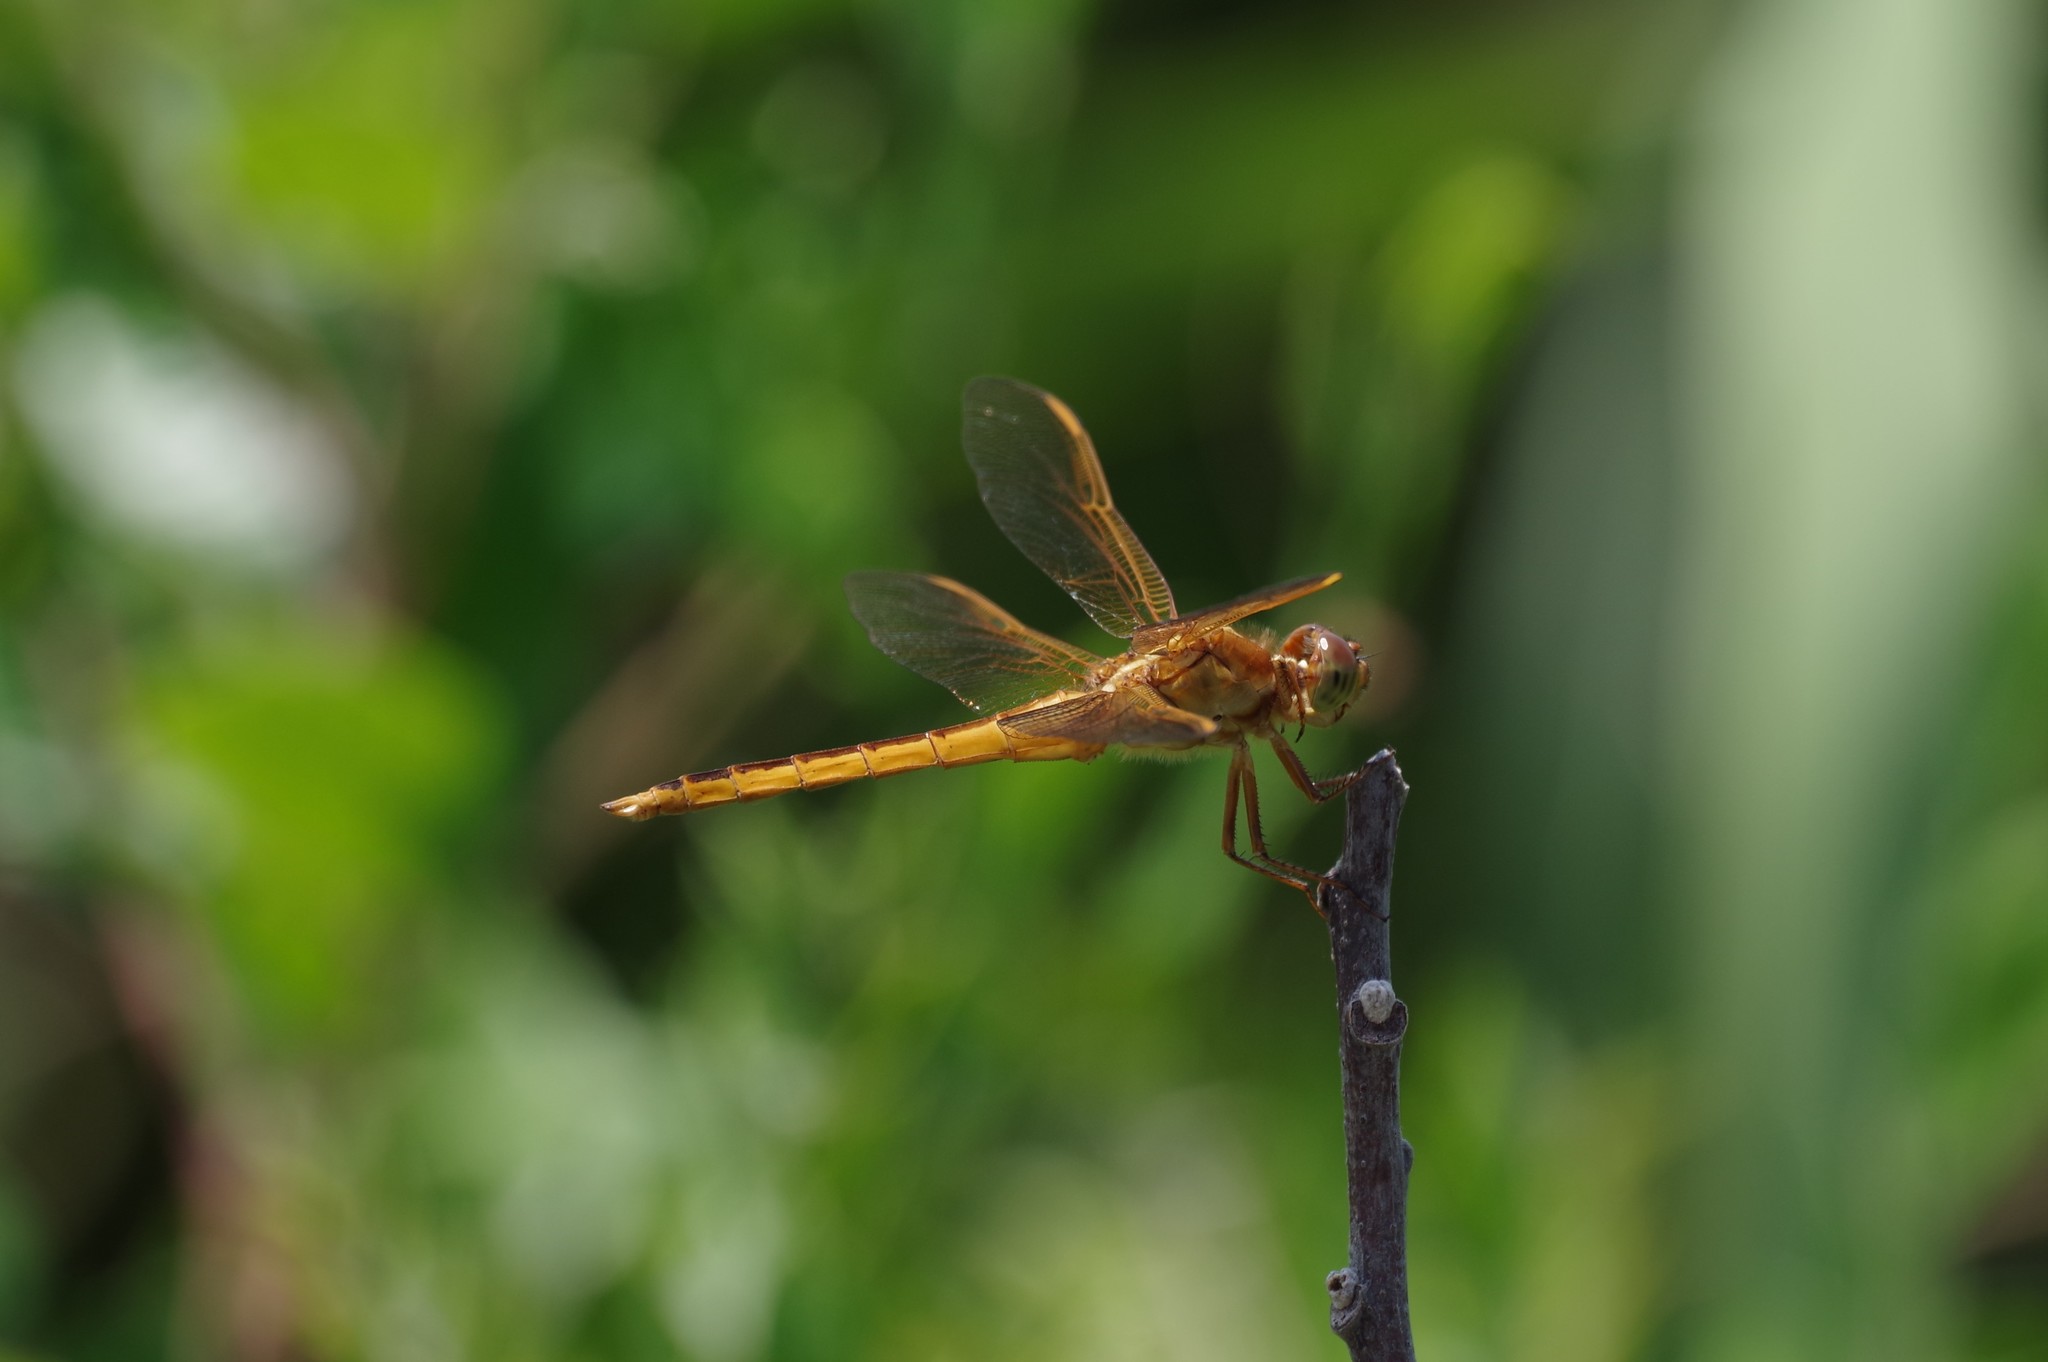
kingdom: Animalia
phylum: Arthropoda
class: Insecta
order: Odonata
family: Libellulidae
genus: Libellula
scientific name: Libellula needhami
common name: Needham's skimmer
